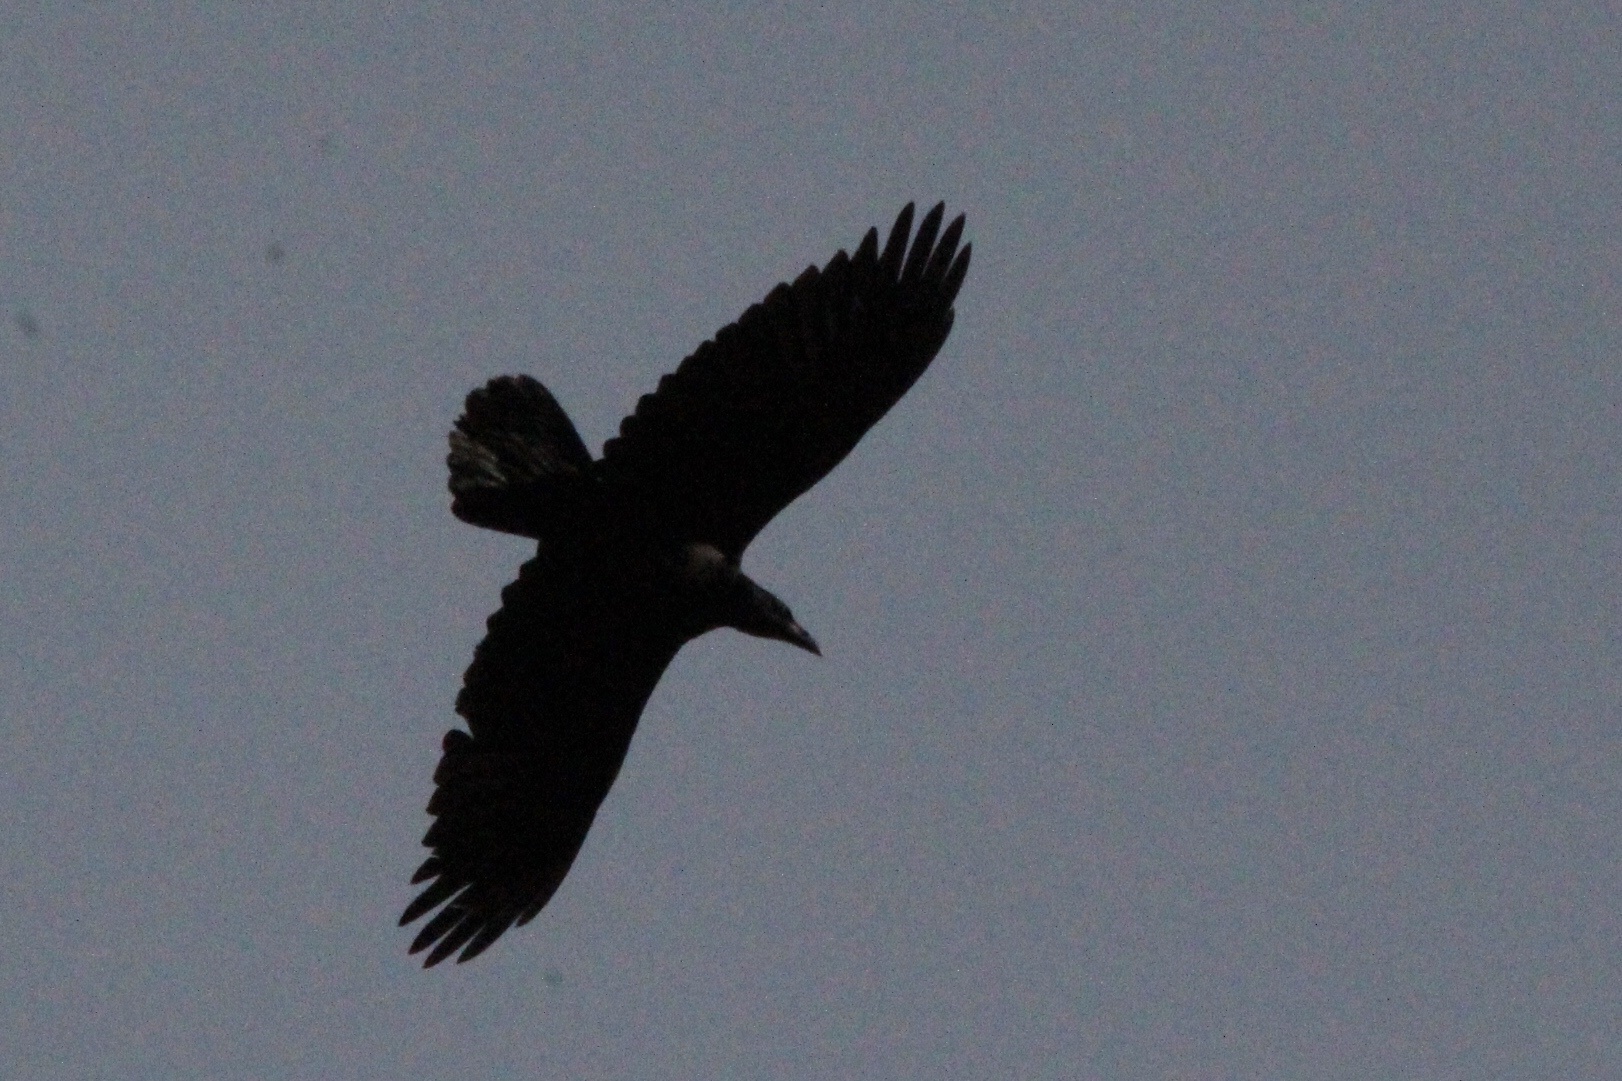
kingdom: Animalia
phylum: Chordata
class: Aves
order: Passeriformes
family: Corvidae
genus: Corvus
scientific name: Corvus corax
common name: Common raven
